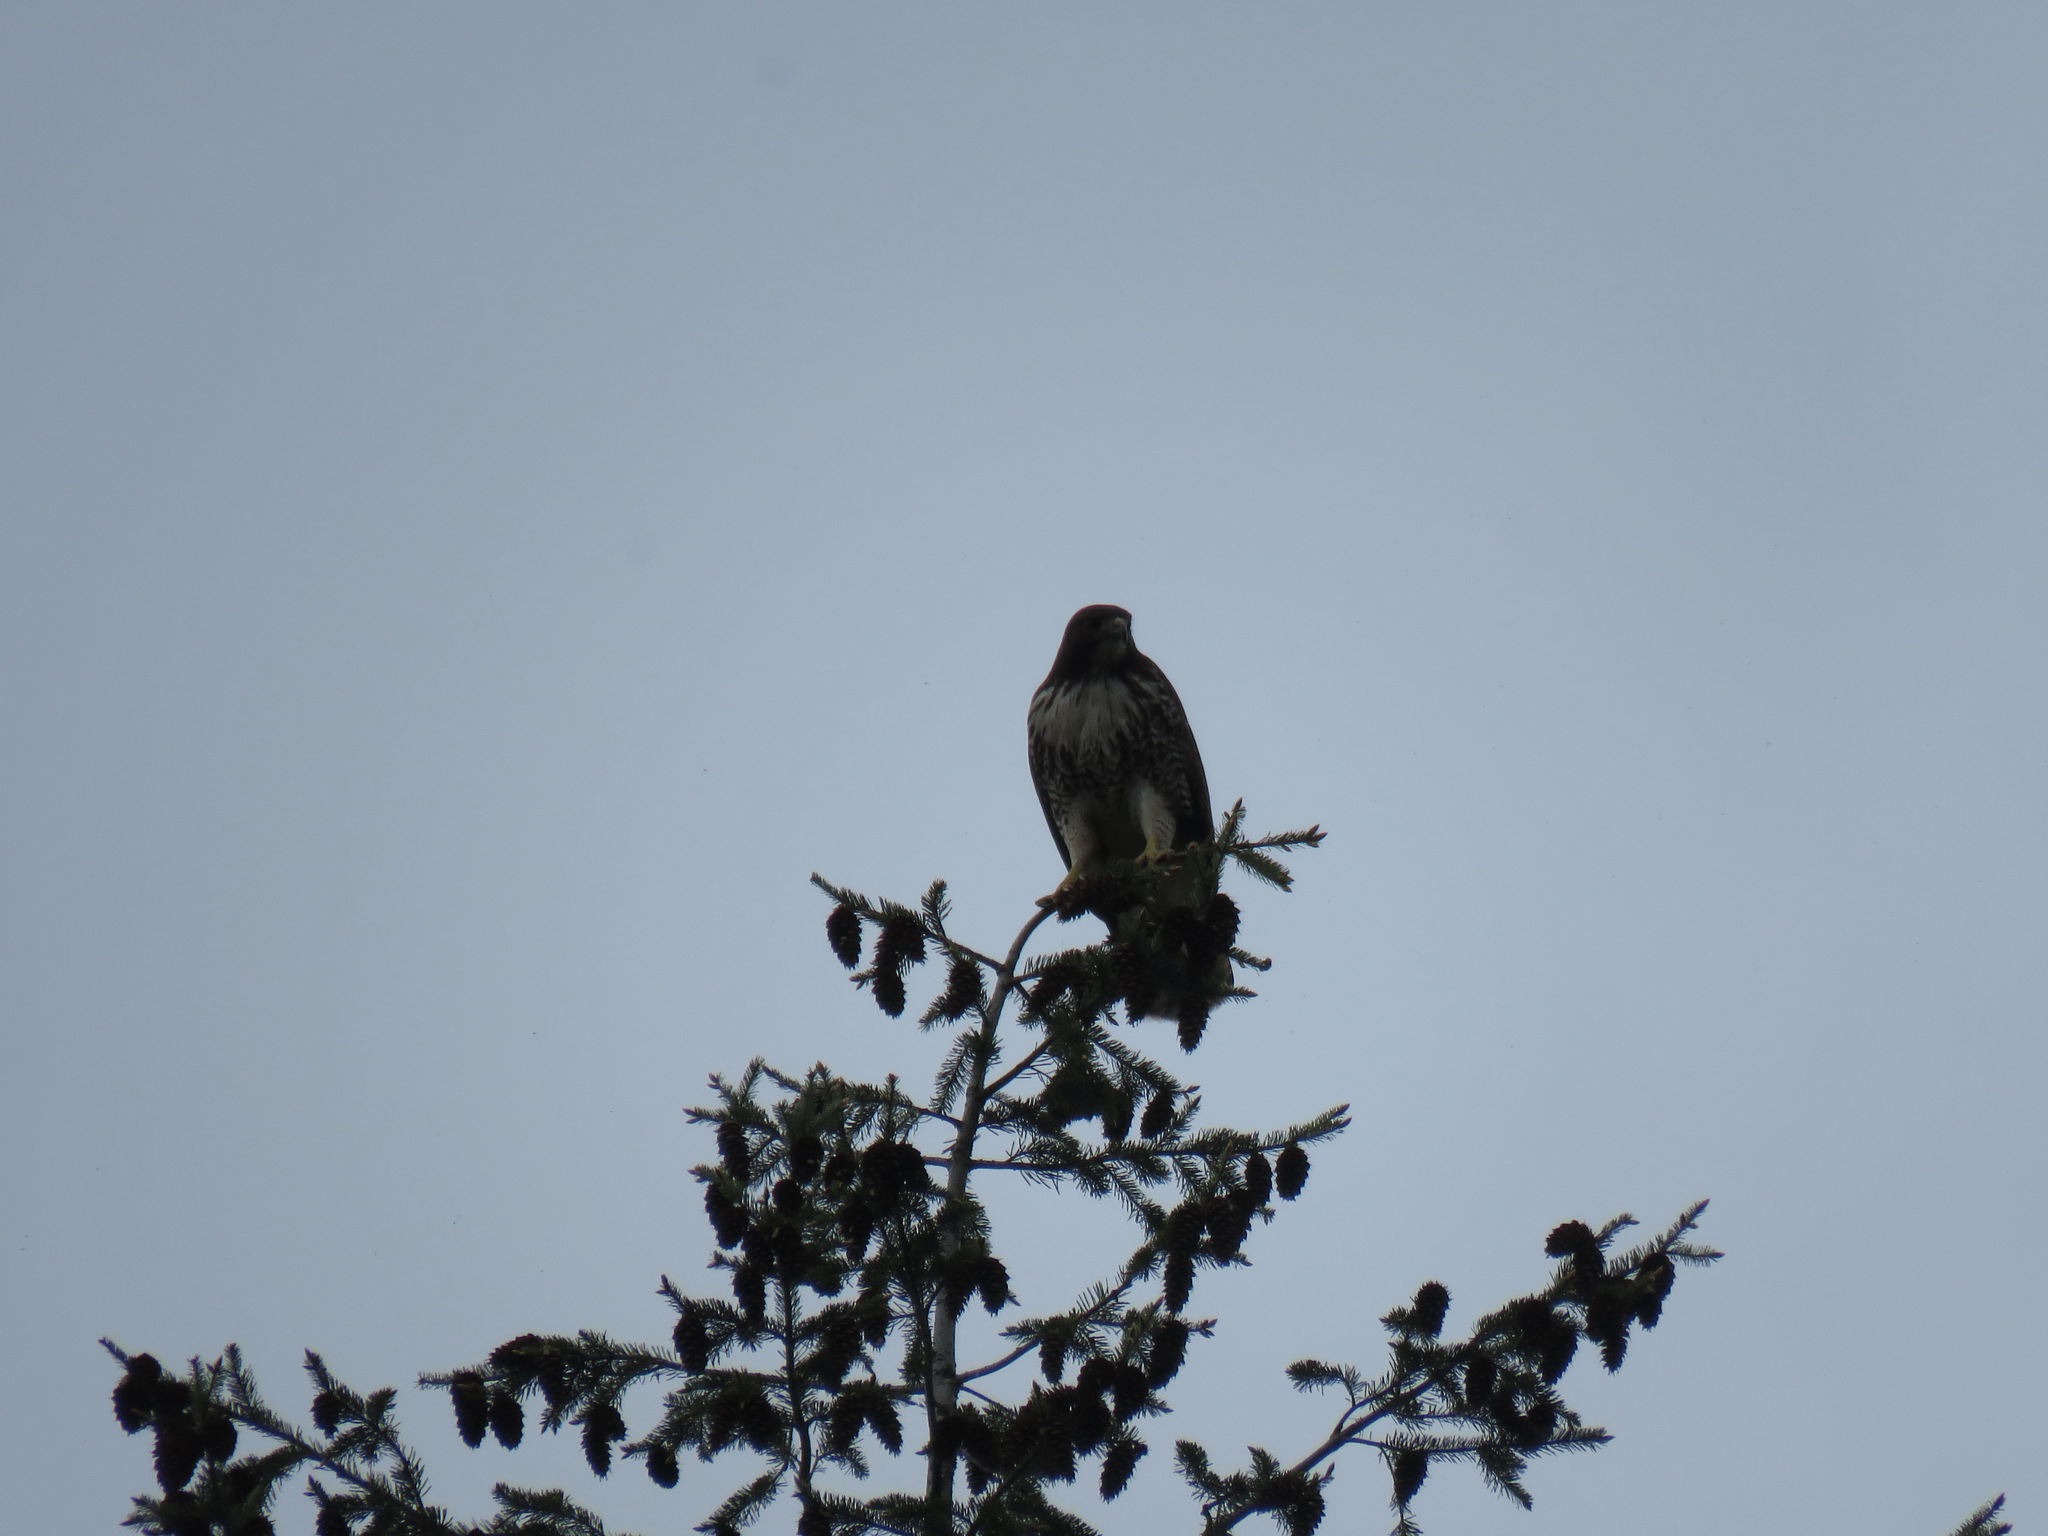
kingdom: Animalia
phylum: Chordata
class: Aves
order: Accipitriformes
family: Accipitridae
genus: Buteo
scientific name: Buteo jamaicensis
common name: Red-tailed hawk
